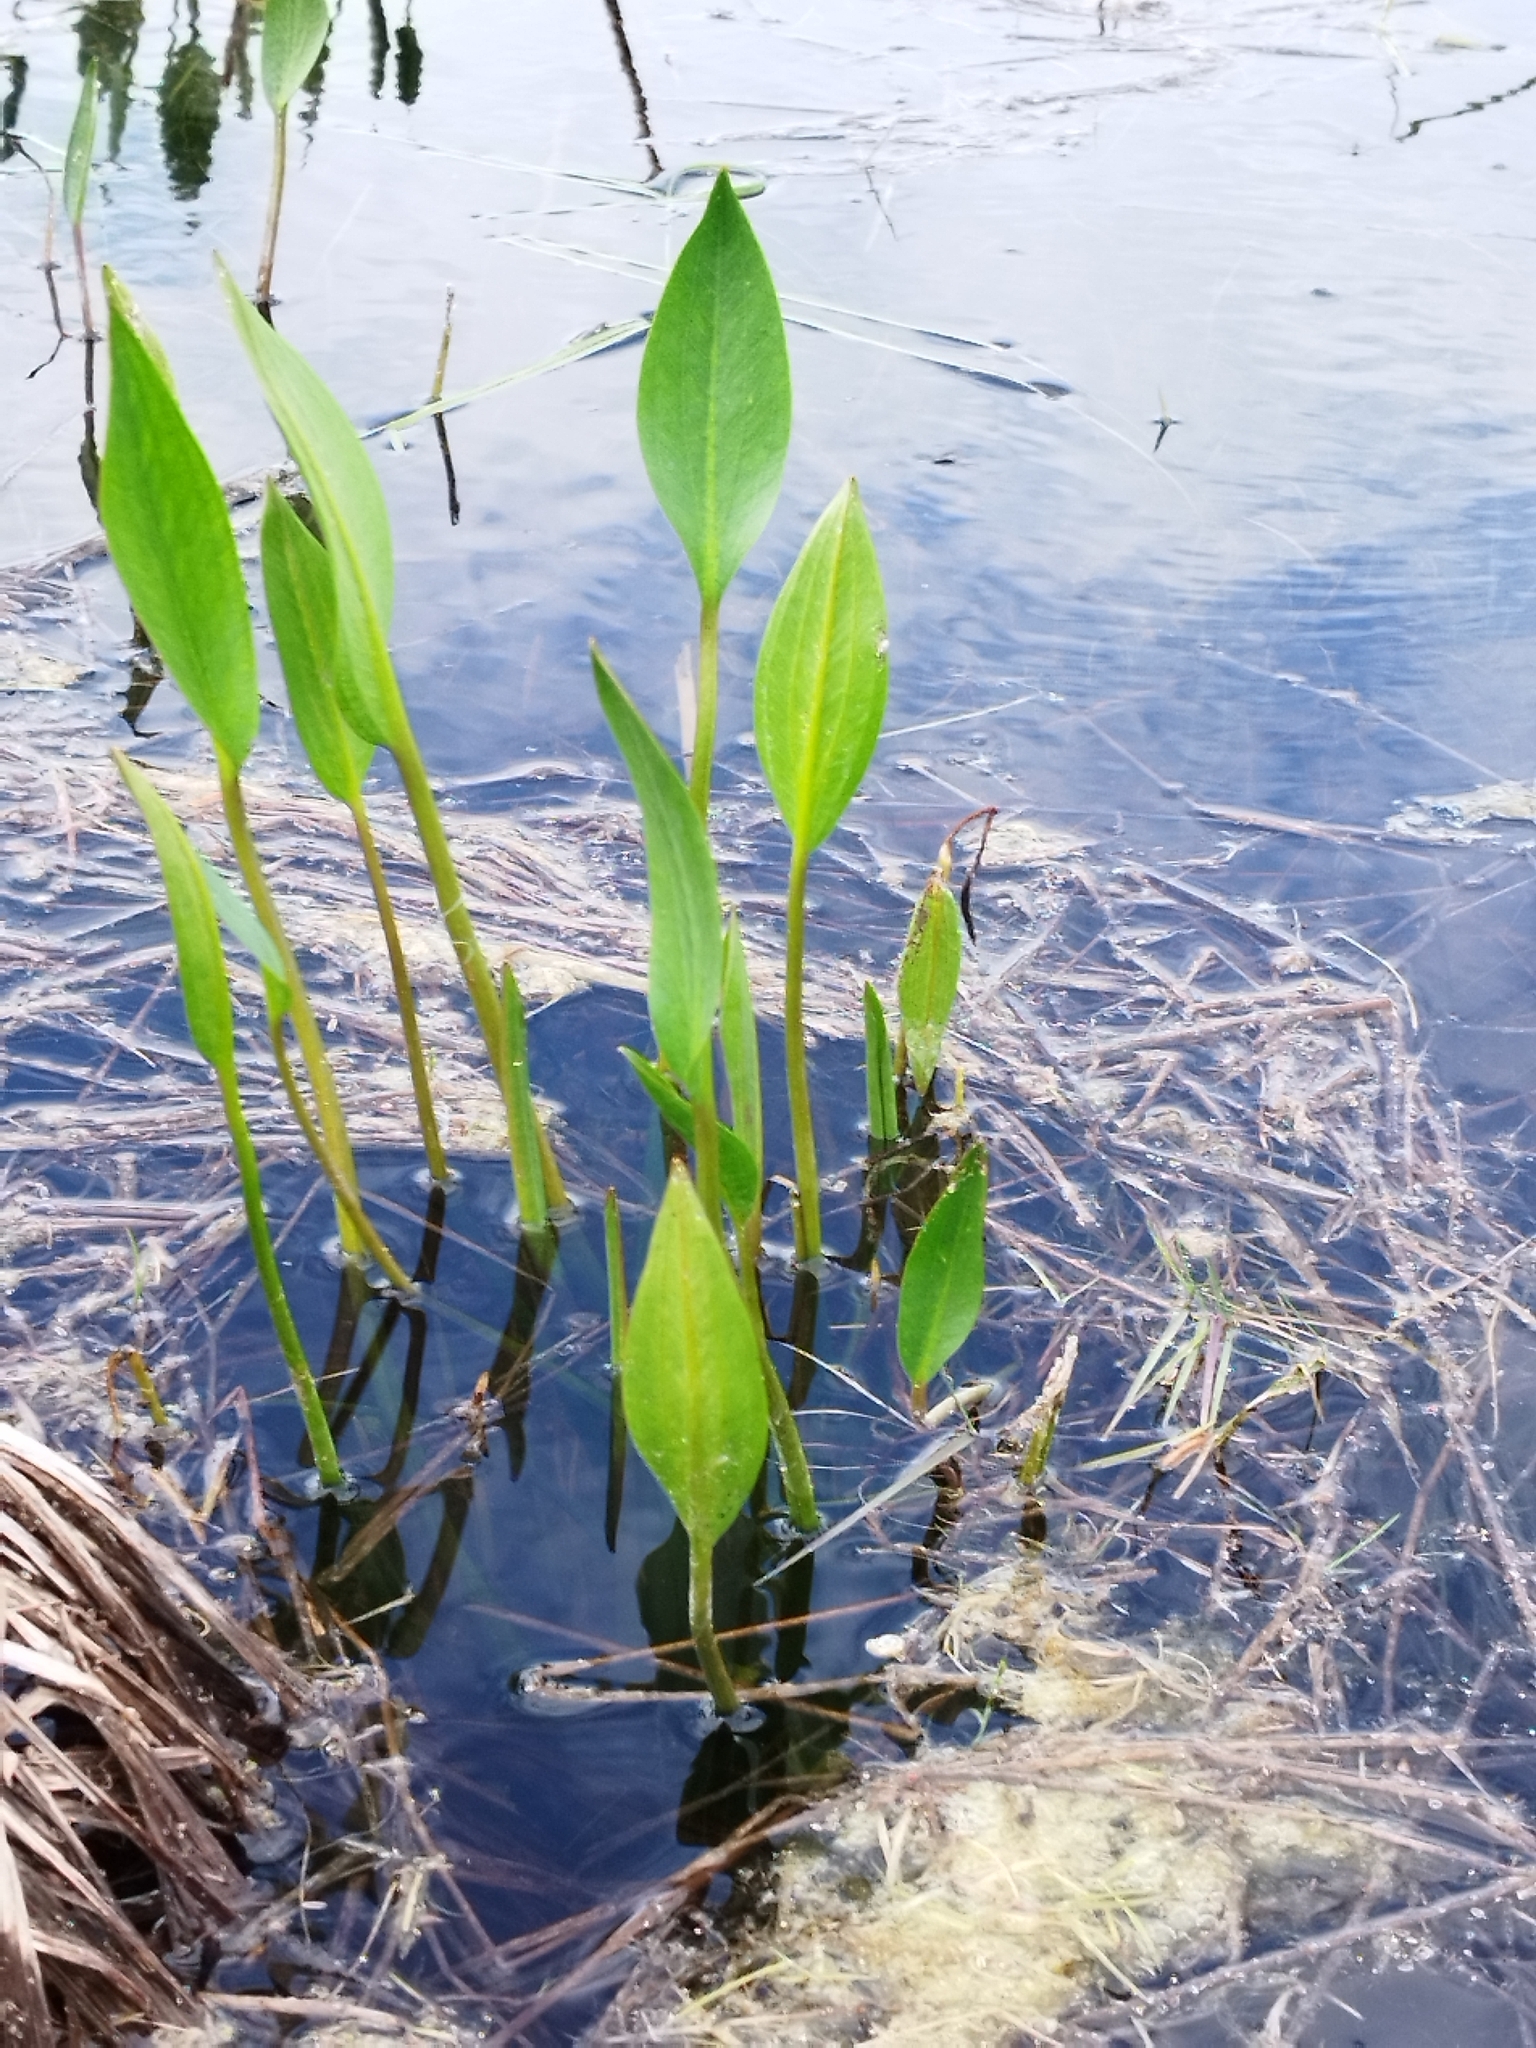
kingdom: Plantae
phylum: Tracheophyta
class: Liliopsida
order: Alismatales
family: Alismataceae
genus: Alisma
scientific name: Alisma plantago-aquatica
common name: Water-plantain
